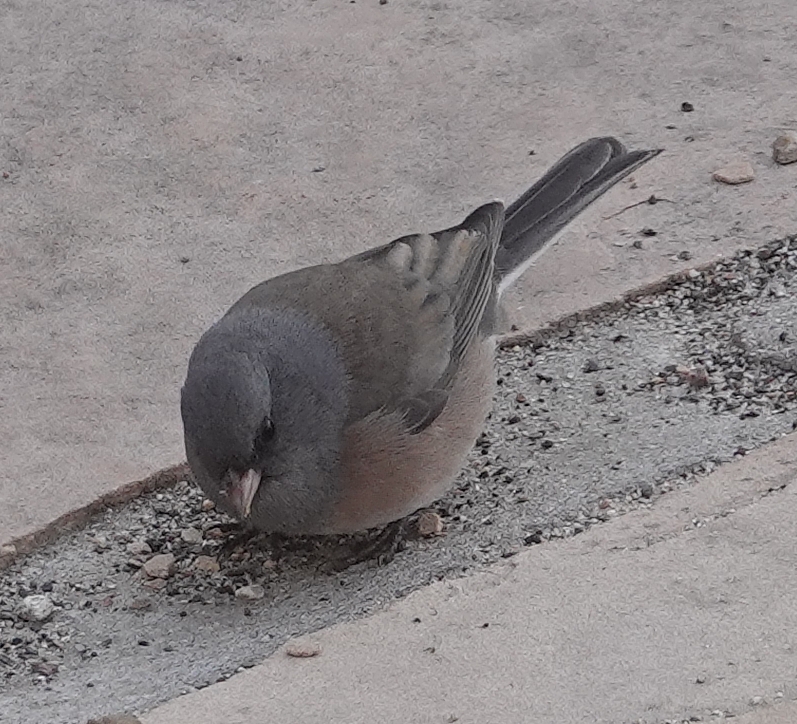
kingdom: Animalia
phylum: Chordata
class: Aves
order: Passeriformes
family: Passerellidae
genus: Junco
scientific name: Junco hyemalis
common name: Dark-eyed junco
